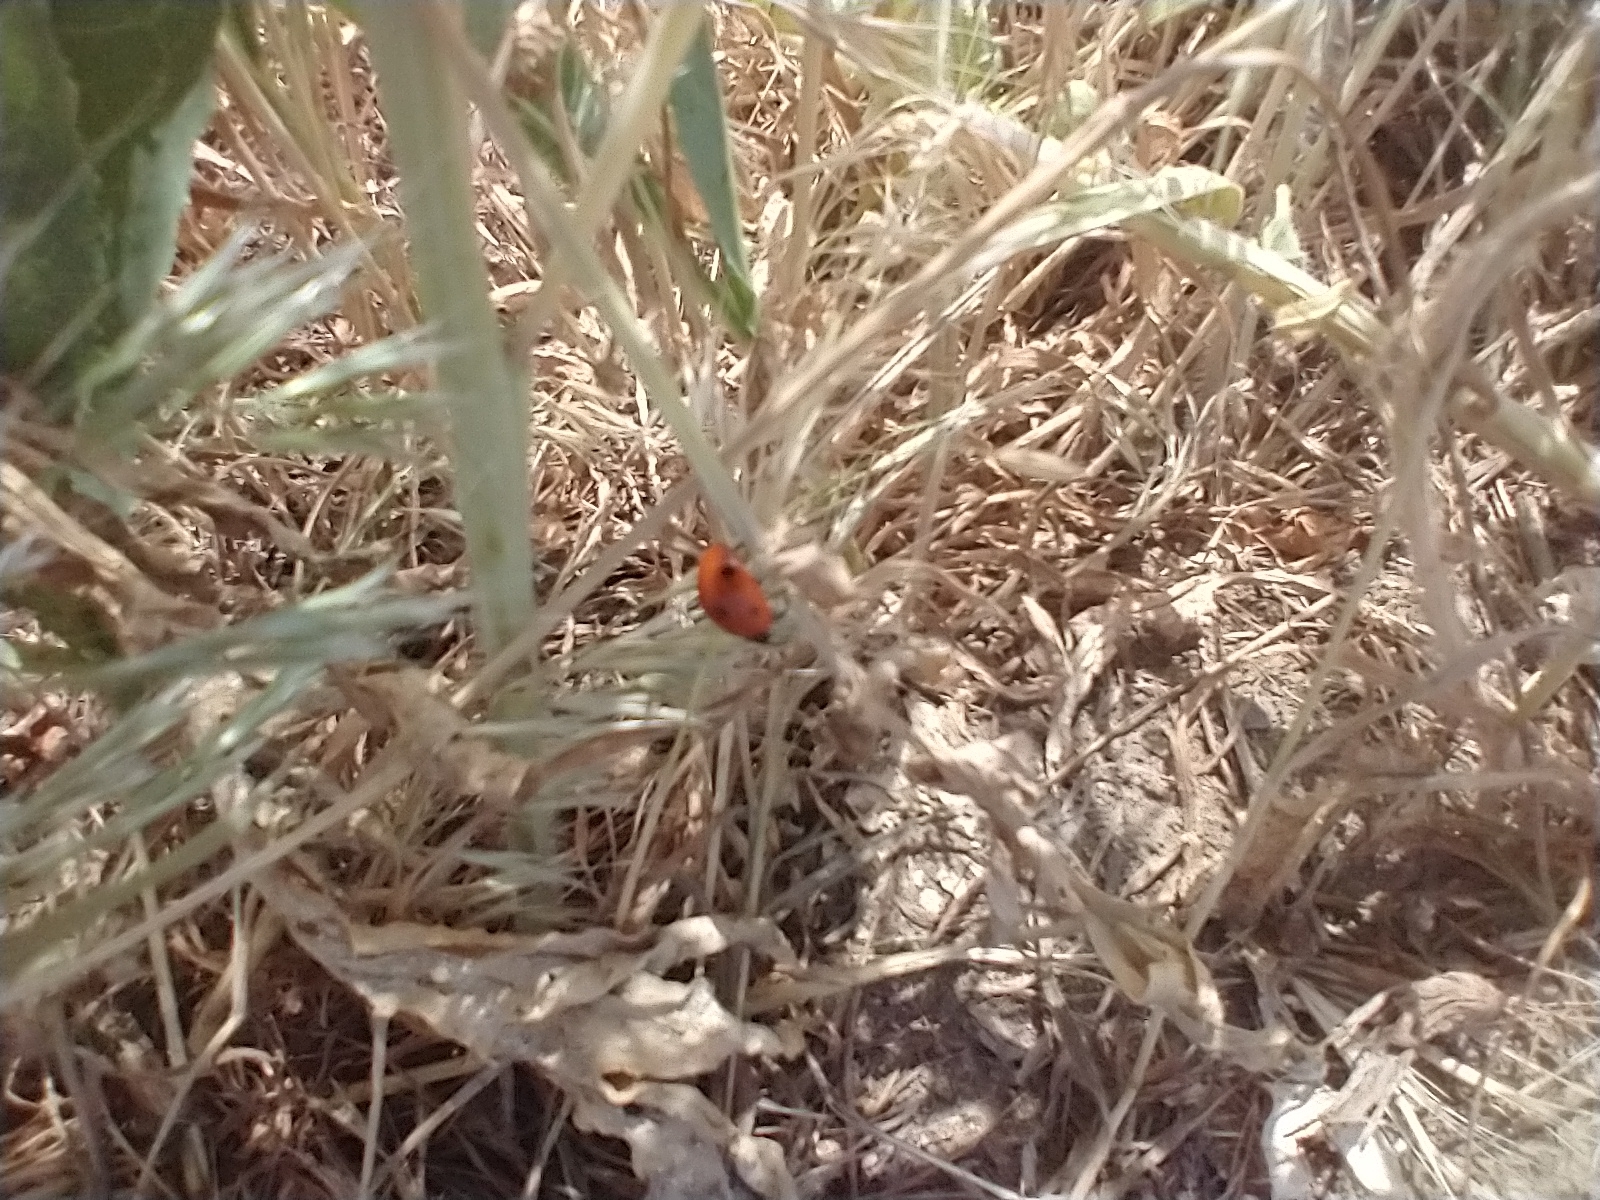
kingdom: Animalia
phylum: Arthropoda
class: Insecta
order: Coleoptera
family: Coccinellidae
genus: Coccinella
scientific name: Coccinella septempunctata
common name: Sevenspotted lady beetle
